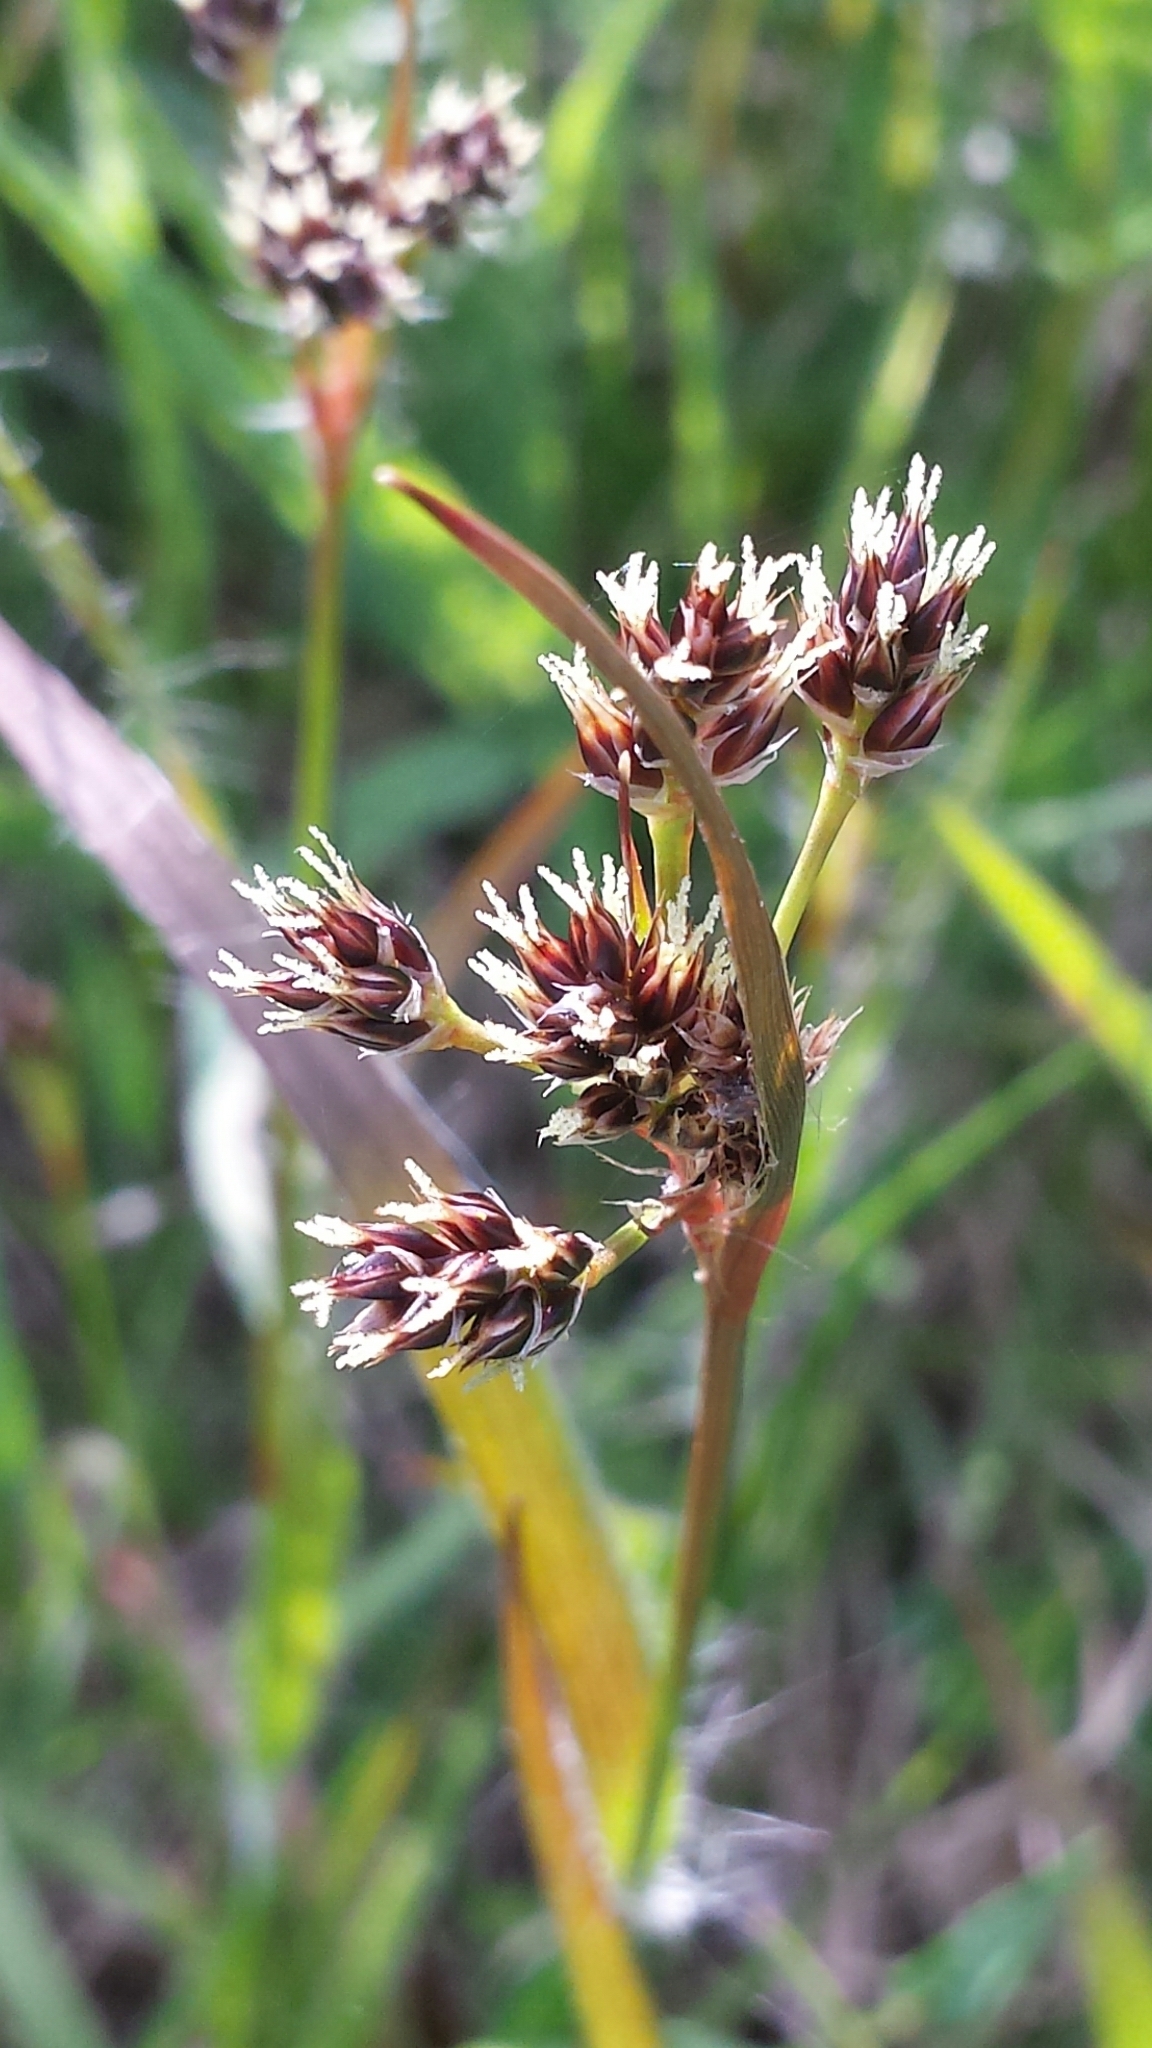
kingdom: Plantae
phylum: Tracheophyta
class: Liliopsida
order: Poales
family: Juncaceae
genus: Luzula
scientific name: Luzula multiflora
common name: Heath wood-rush
